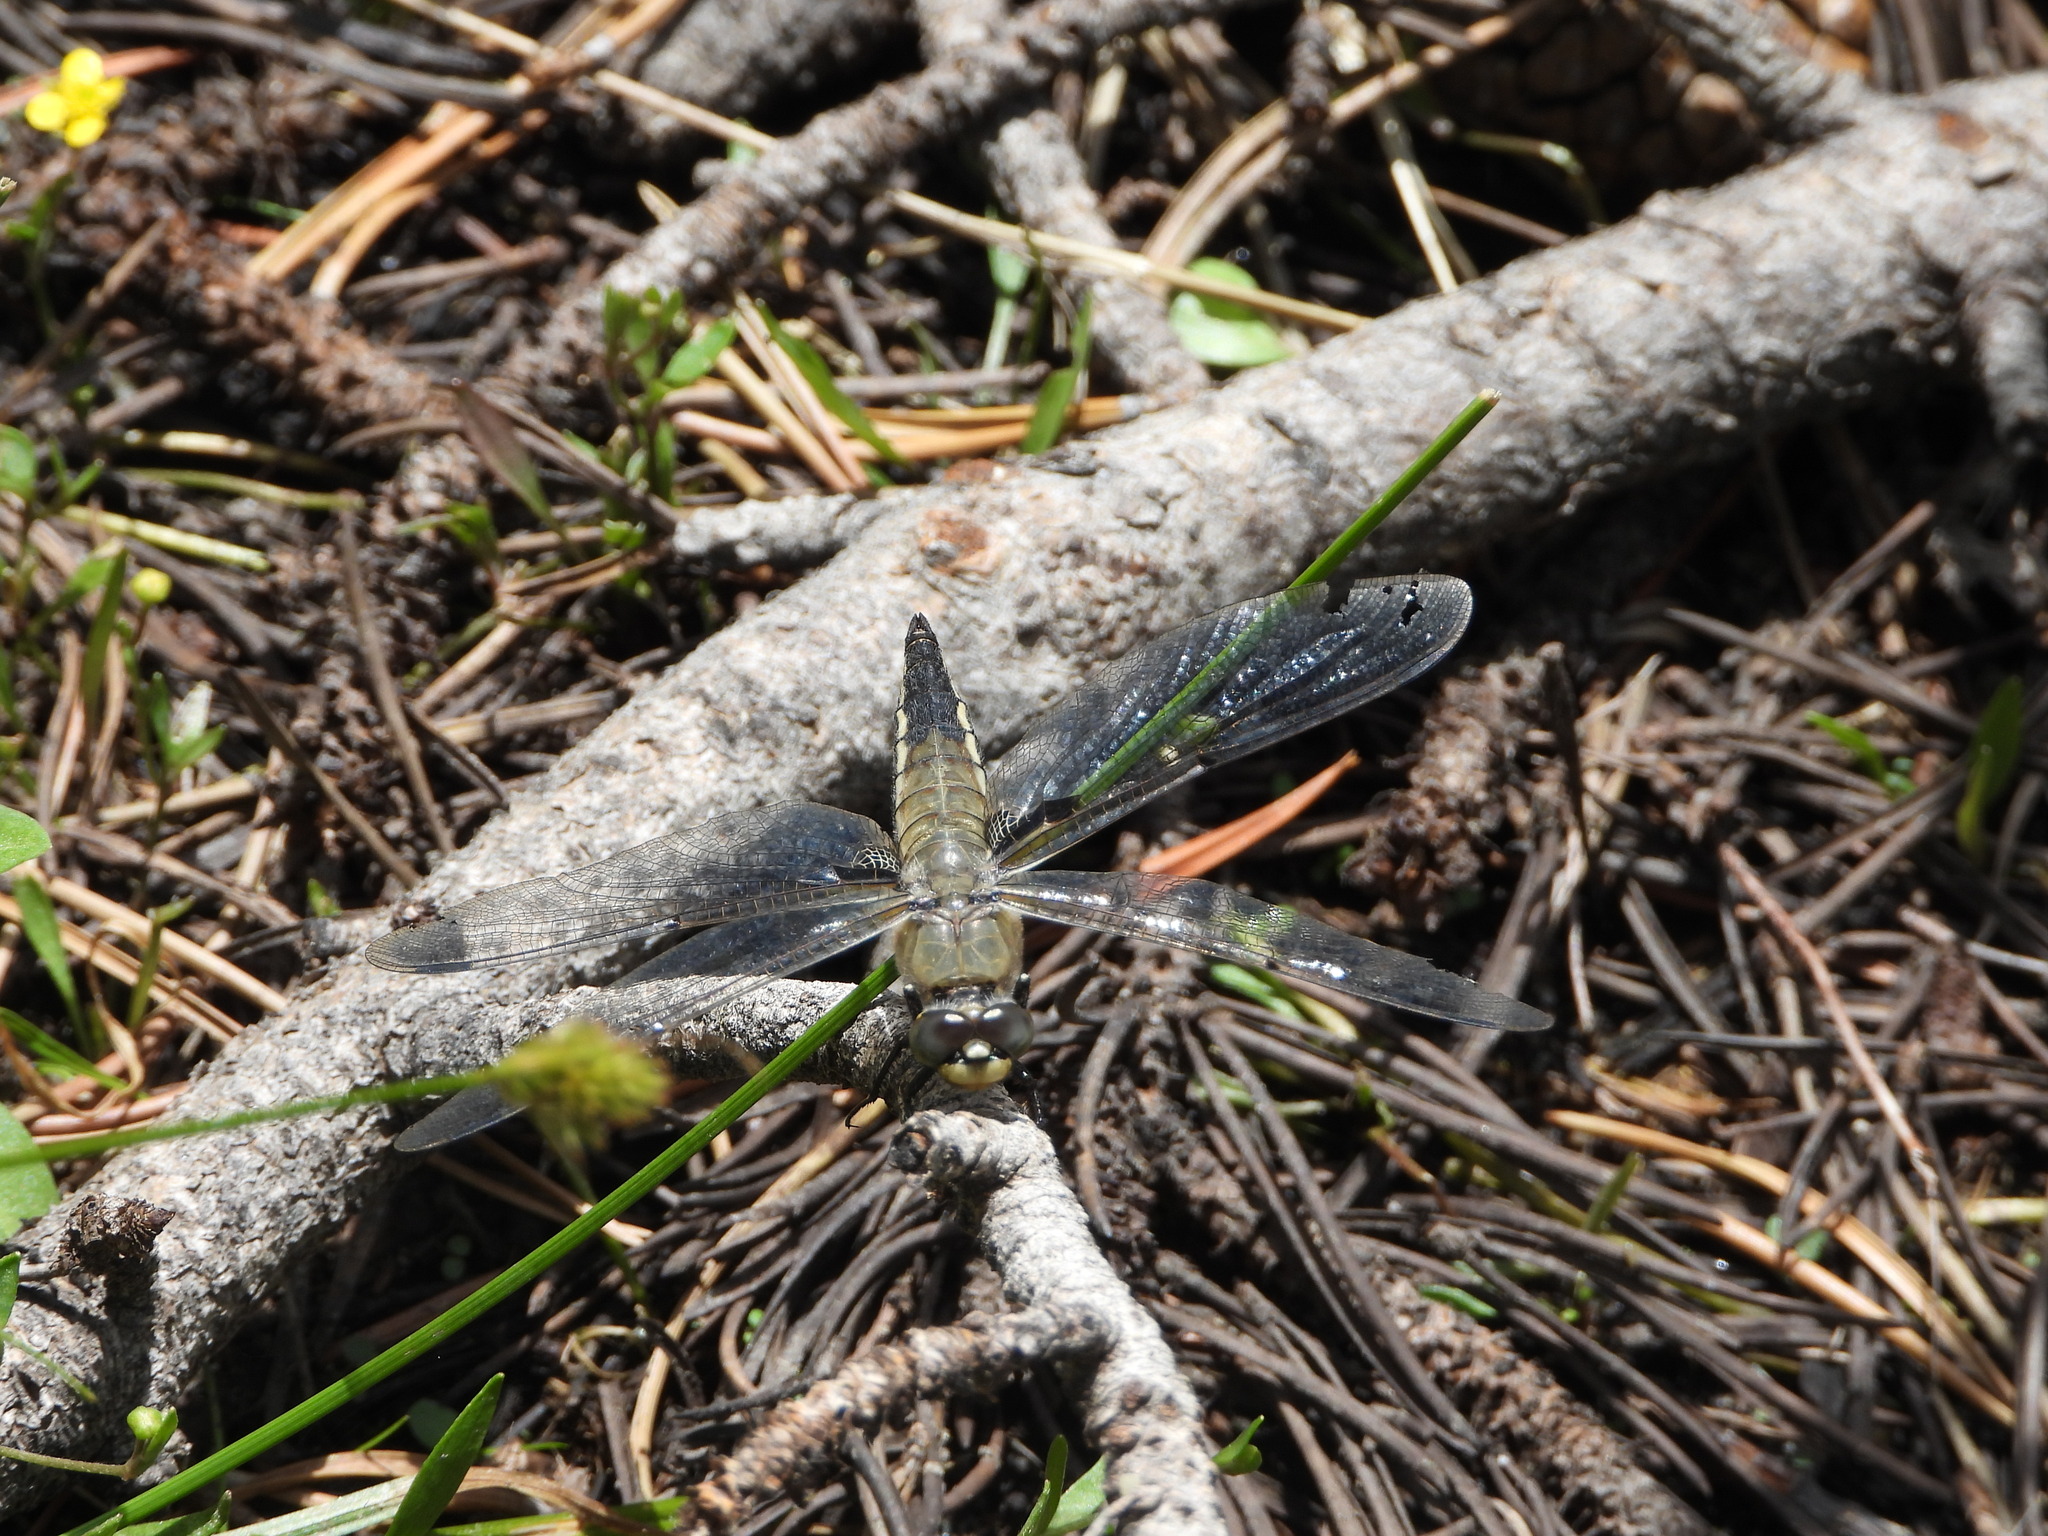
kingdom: Animalia
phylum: Arthropoda
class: Insecta
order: Odonata
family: Libellulidae
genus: Libellula
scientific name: Libellula quadrimaculata
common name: Four-spotted chaser
